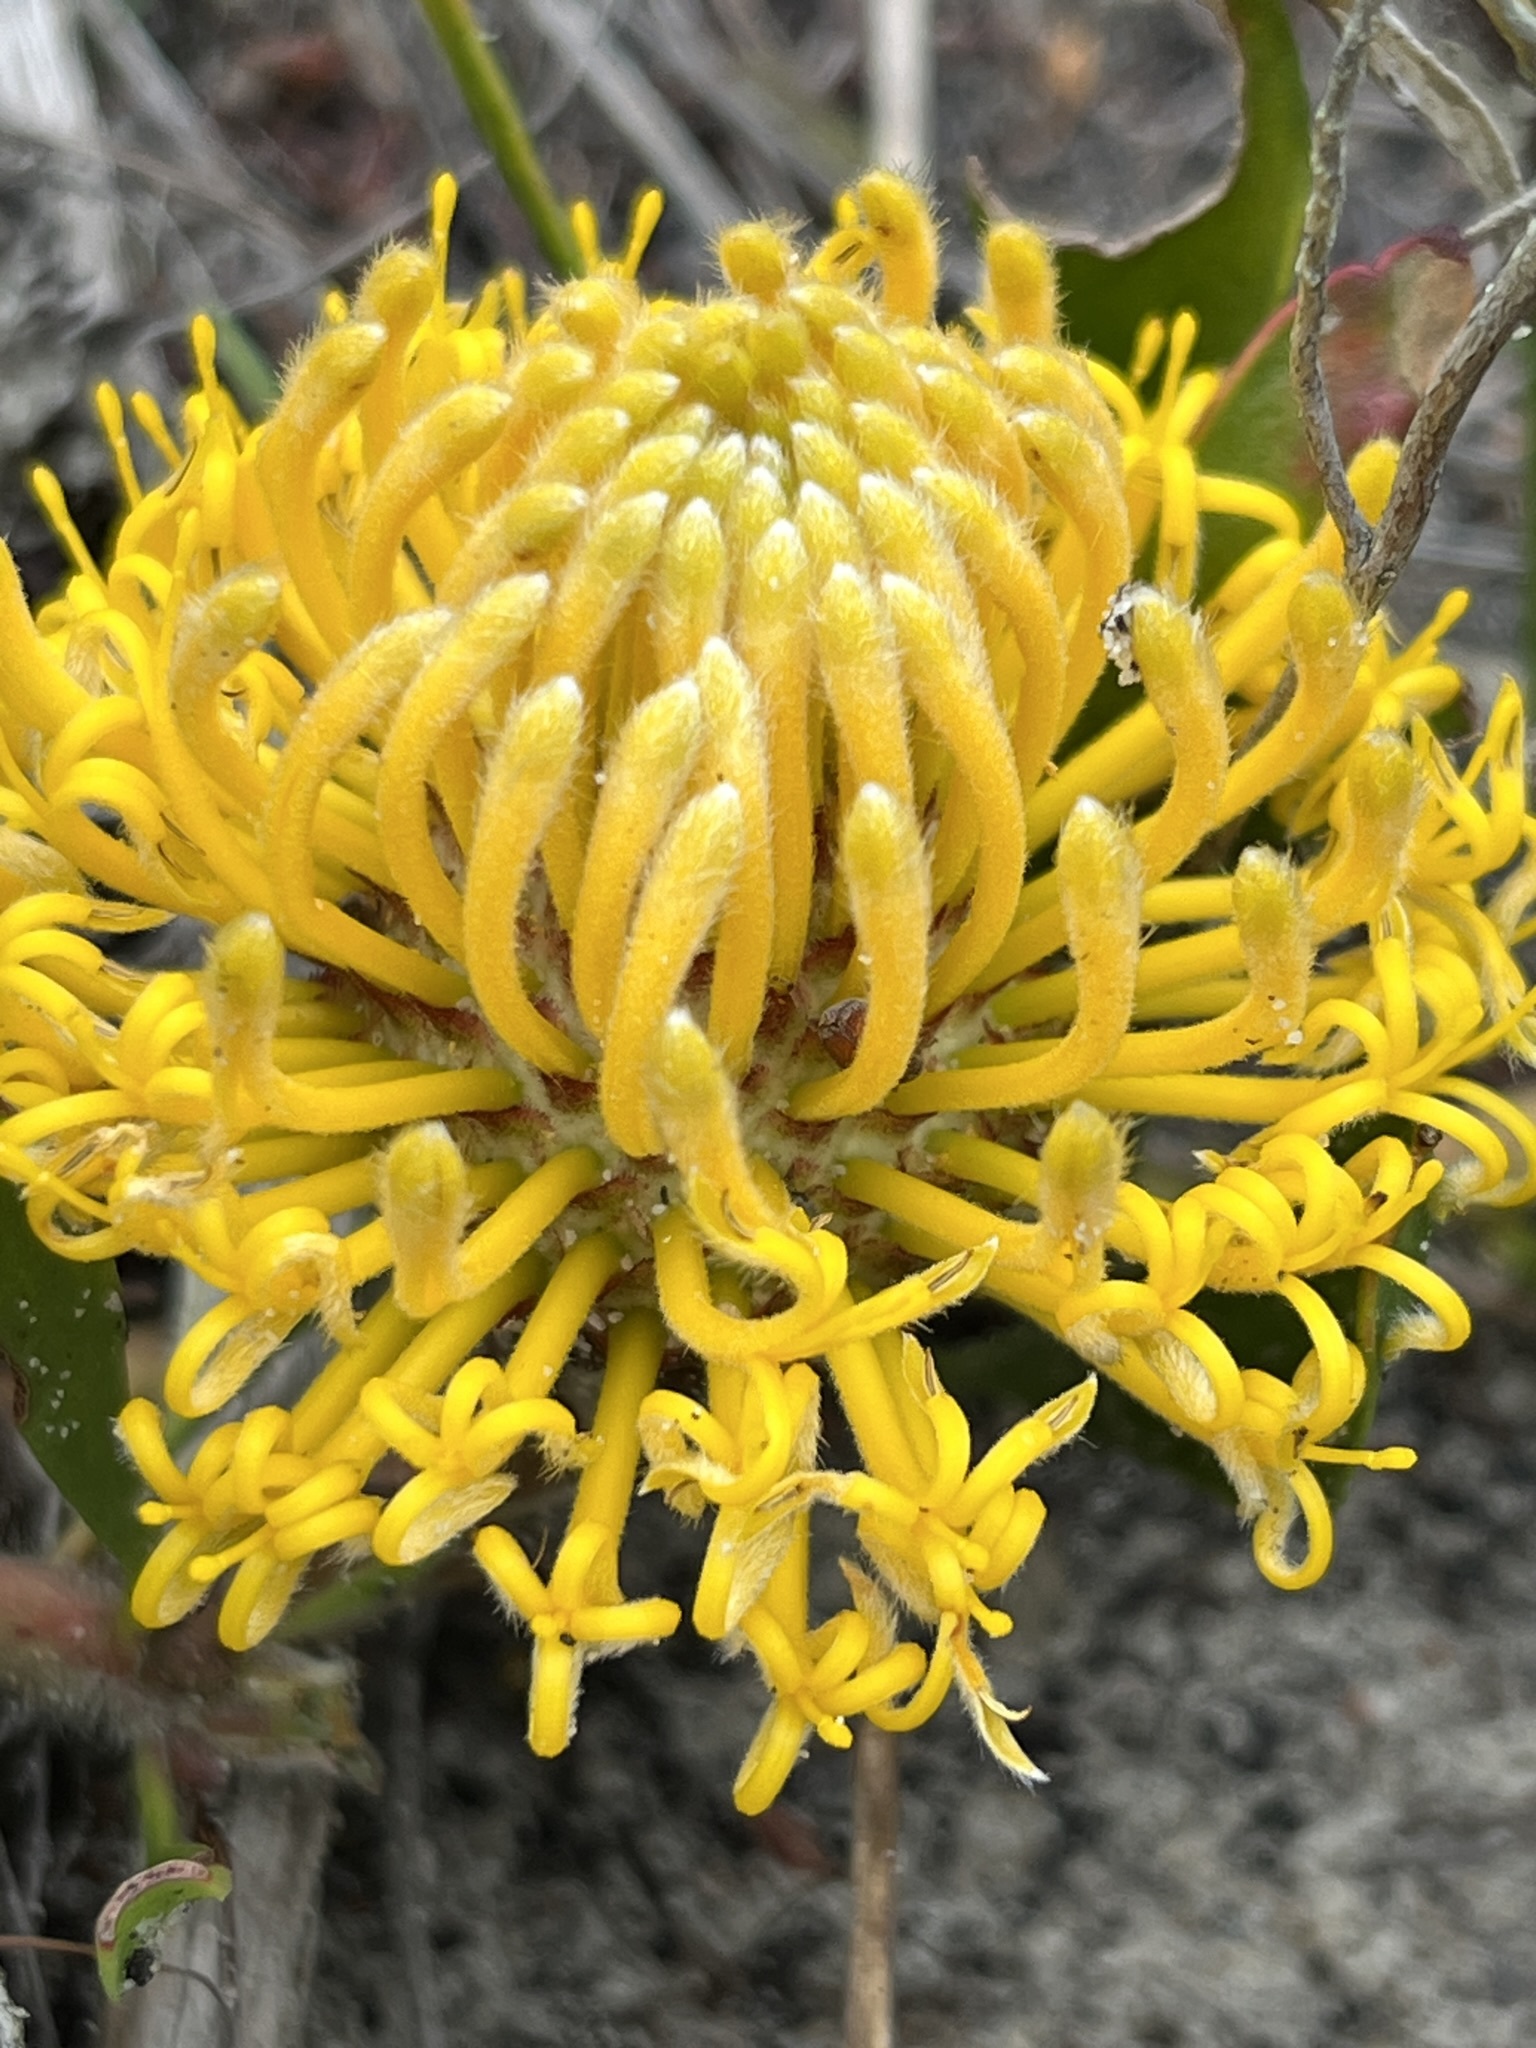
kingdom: Plantae
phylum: Tracheophyta
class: Magnoliopsida
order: Proteales
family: Proteaceae
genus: Leucospermum
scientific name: Leucospermum hypophyllocarpodendron
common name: Snakestem pincushion
